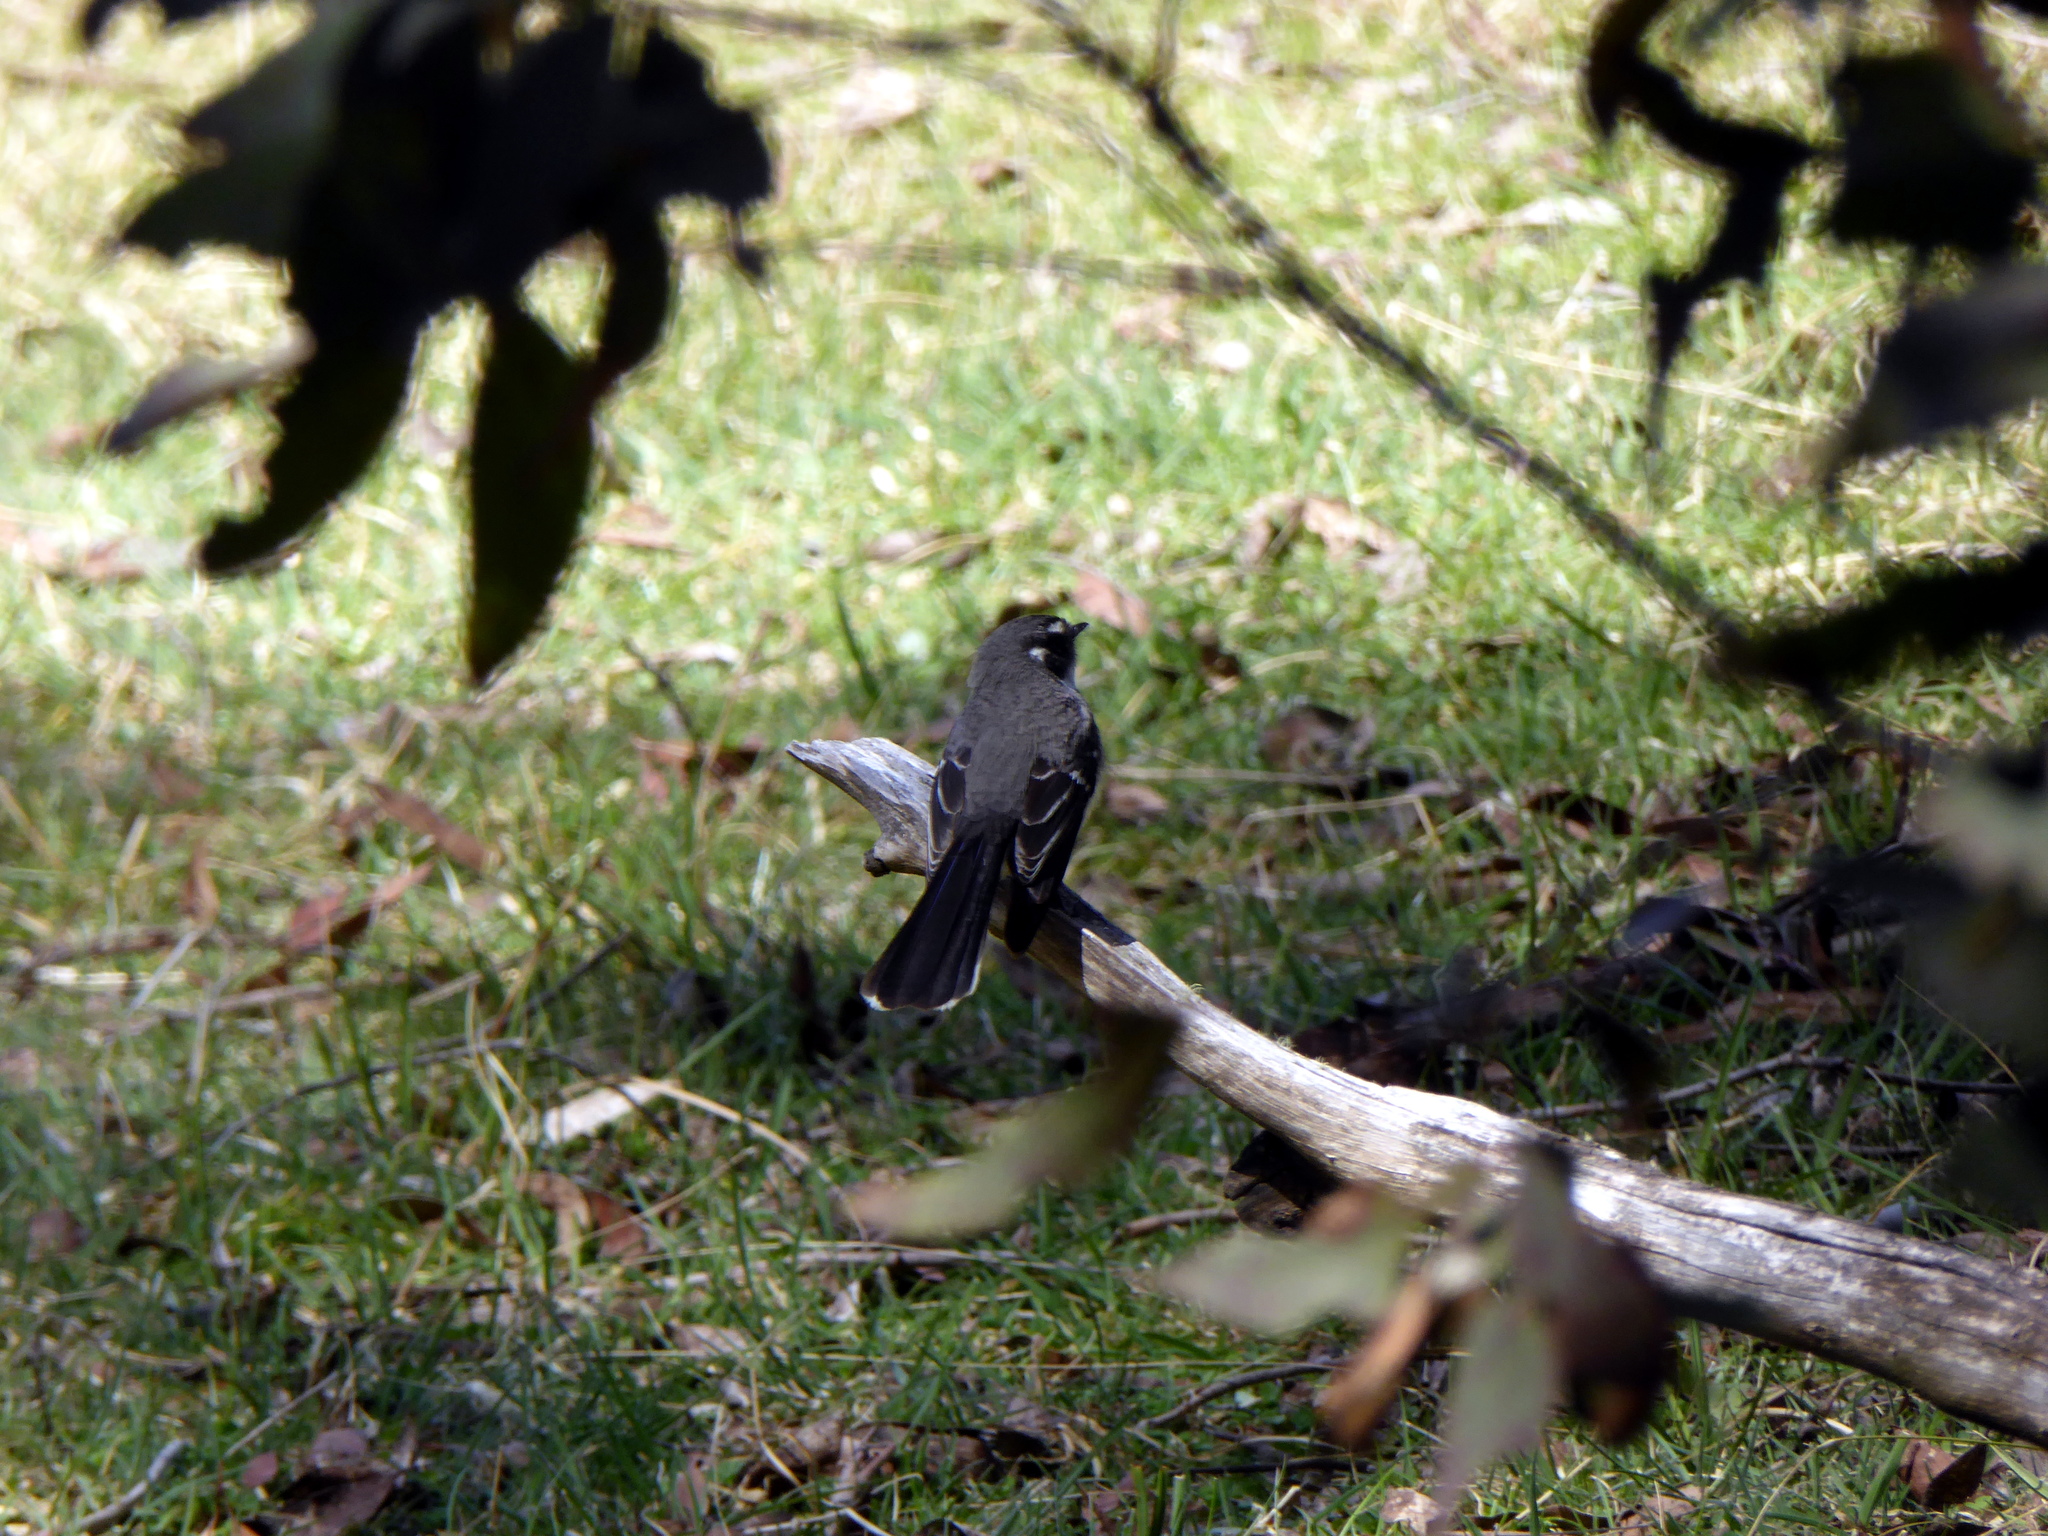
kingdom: Animalia
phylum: Chordata
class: Aves
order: Passeriformes
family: Rhipiduridae
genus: Rhipidura
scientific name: Rhipidura albiscapa
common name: Grey fantail
